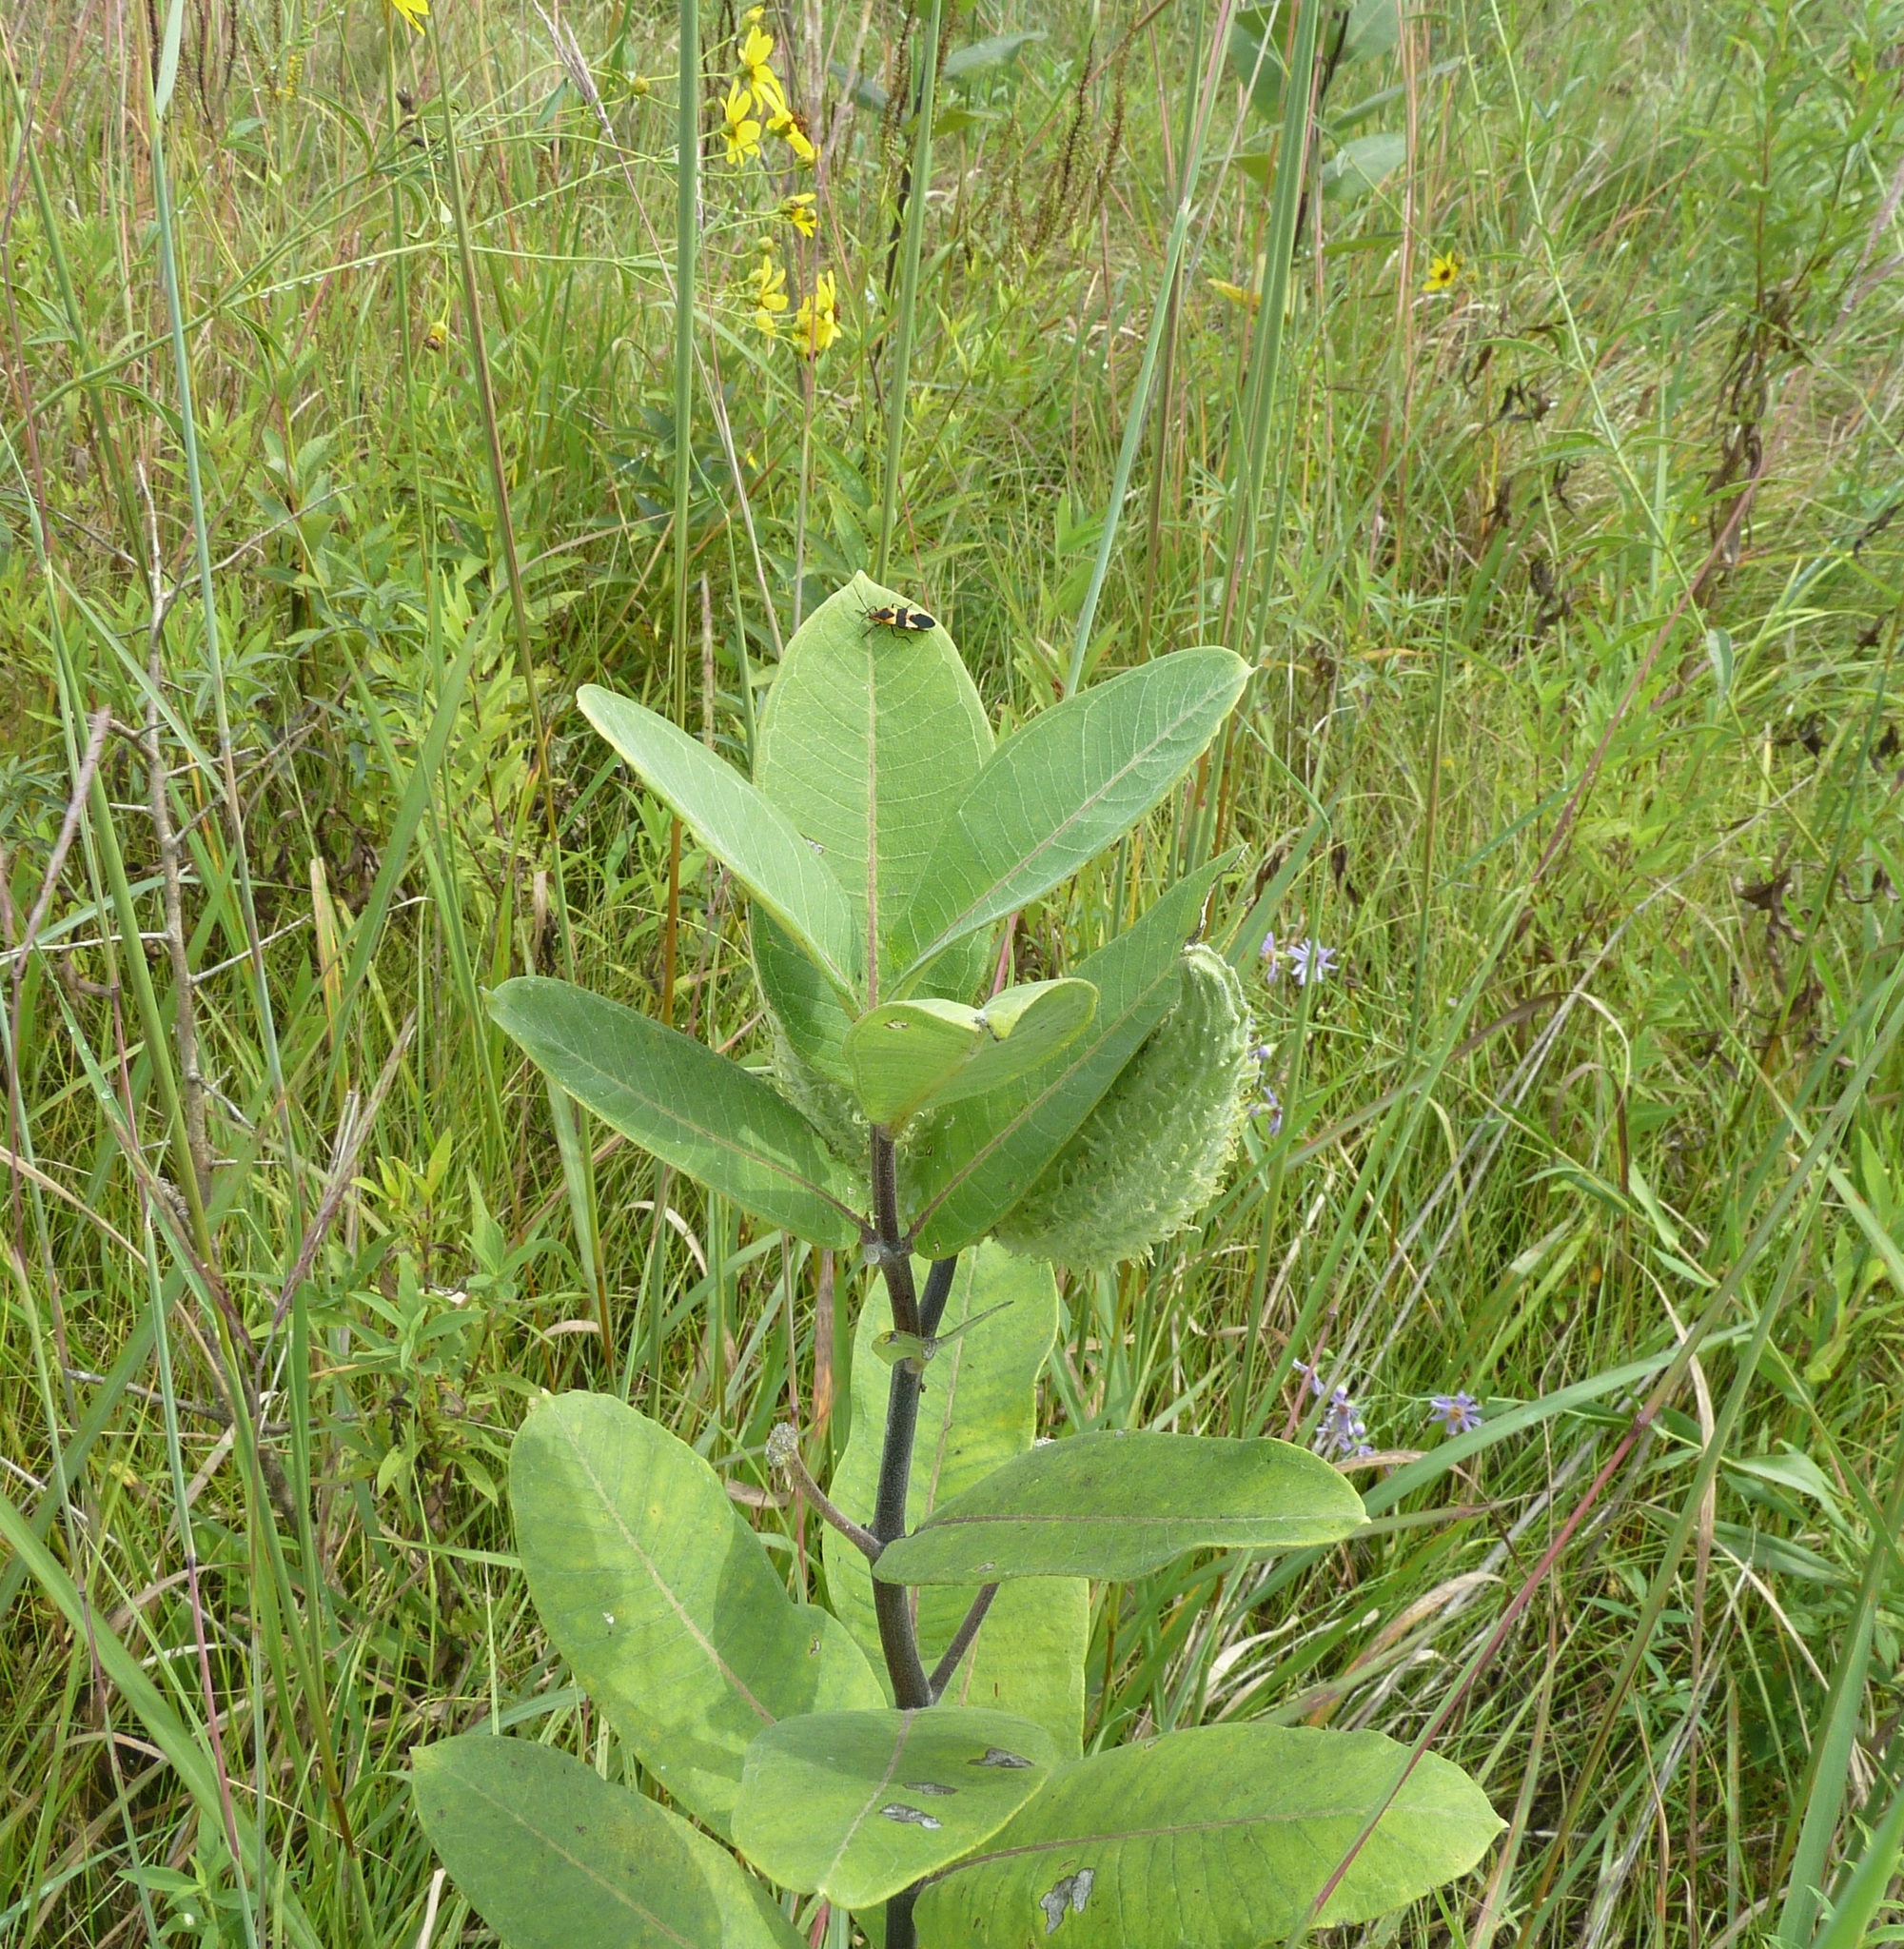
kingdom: Plantae
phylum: Tracheophyta
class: Magnoliopsida
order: Gentianales
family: Apocynaceae
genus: Asclepias
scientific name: Asclepias syriaca
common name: Common milkweed
